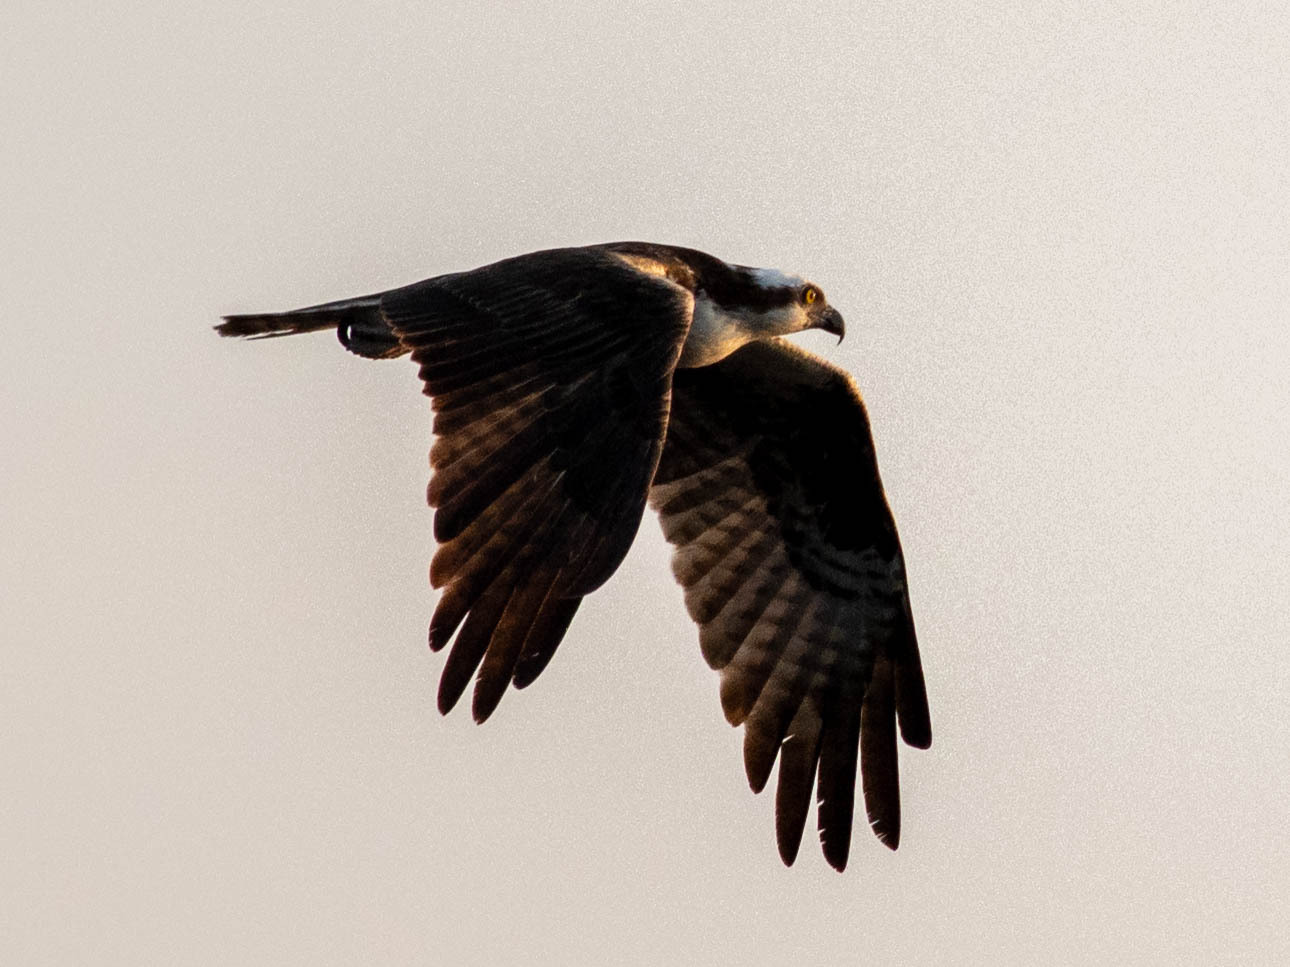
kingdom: Animalia
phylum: Chordata
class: Aves
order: Accipitriformes
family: Pandionidae
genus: Pandion
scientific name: Pandion haliaetus
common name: Osprey
